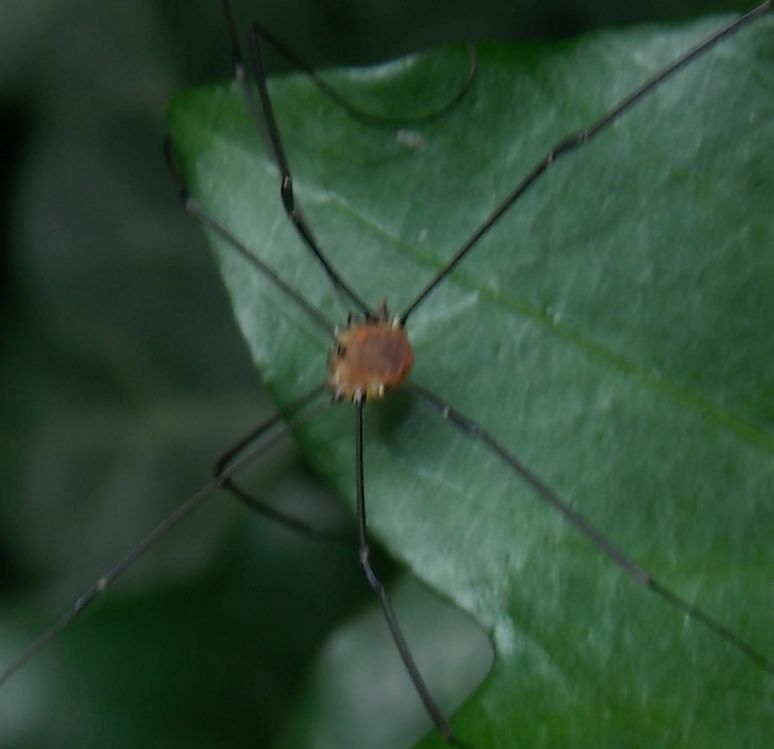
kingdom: Animalia
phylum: Arthropoda
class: Arachnida
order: Opiliones
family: Sclerosomatidae
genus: Leiobunum
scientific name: Leiobunum rotundum
